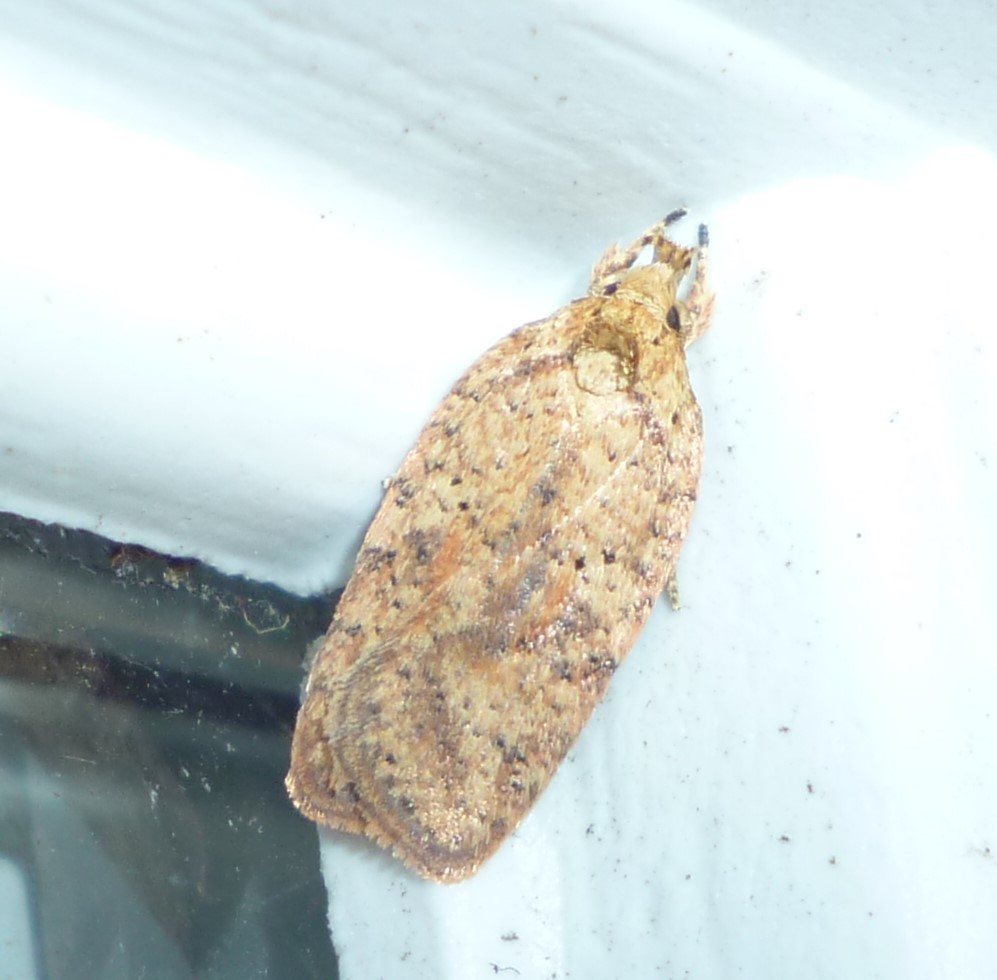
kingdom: Animalia
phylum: Arthropoda
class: Insecta
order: Lepidoptera
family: Depressariidae
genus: Agonopterix
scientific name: Agonopterix thelmae
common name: Thelma's agonopterix moth
